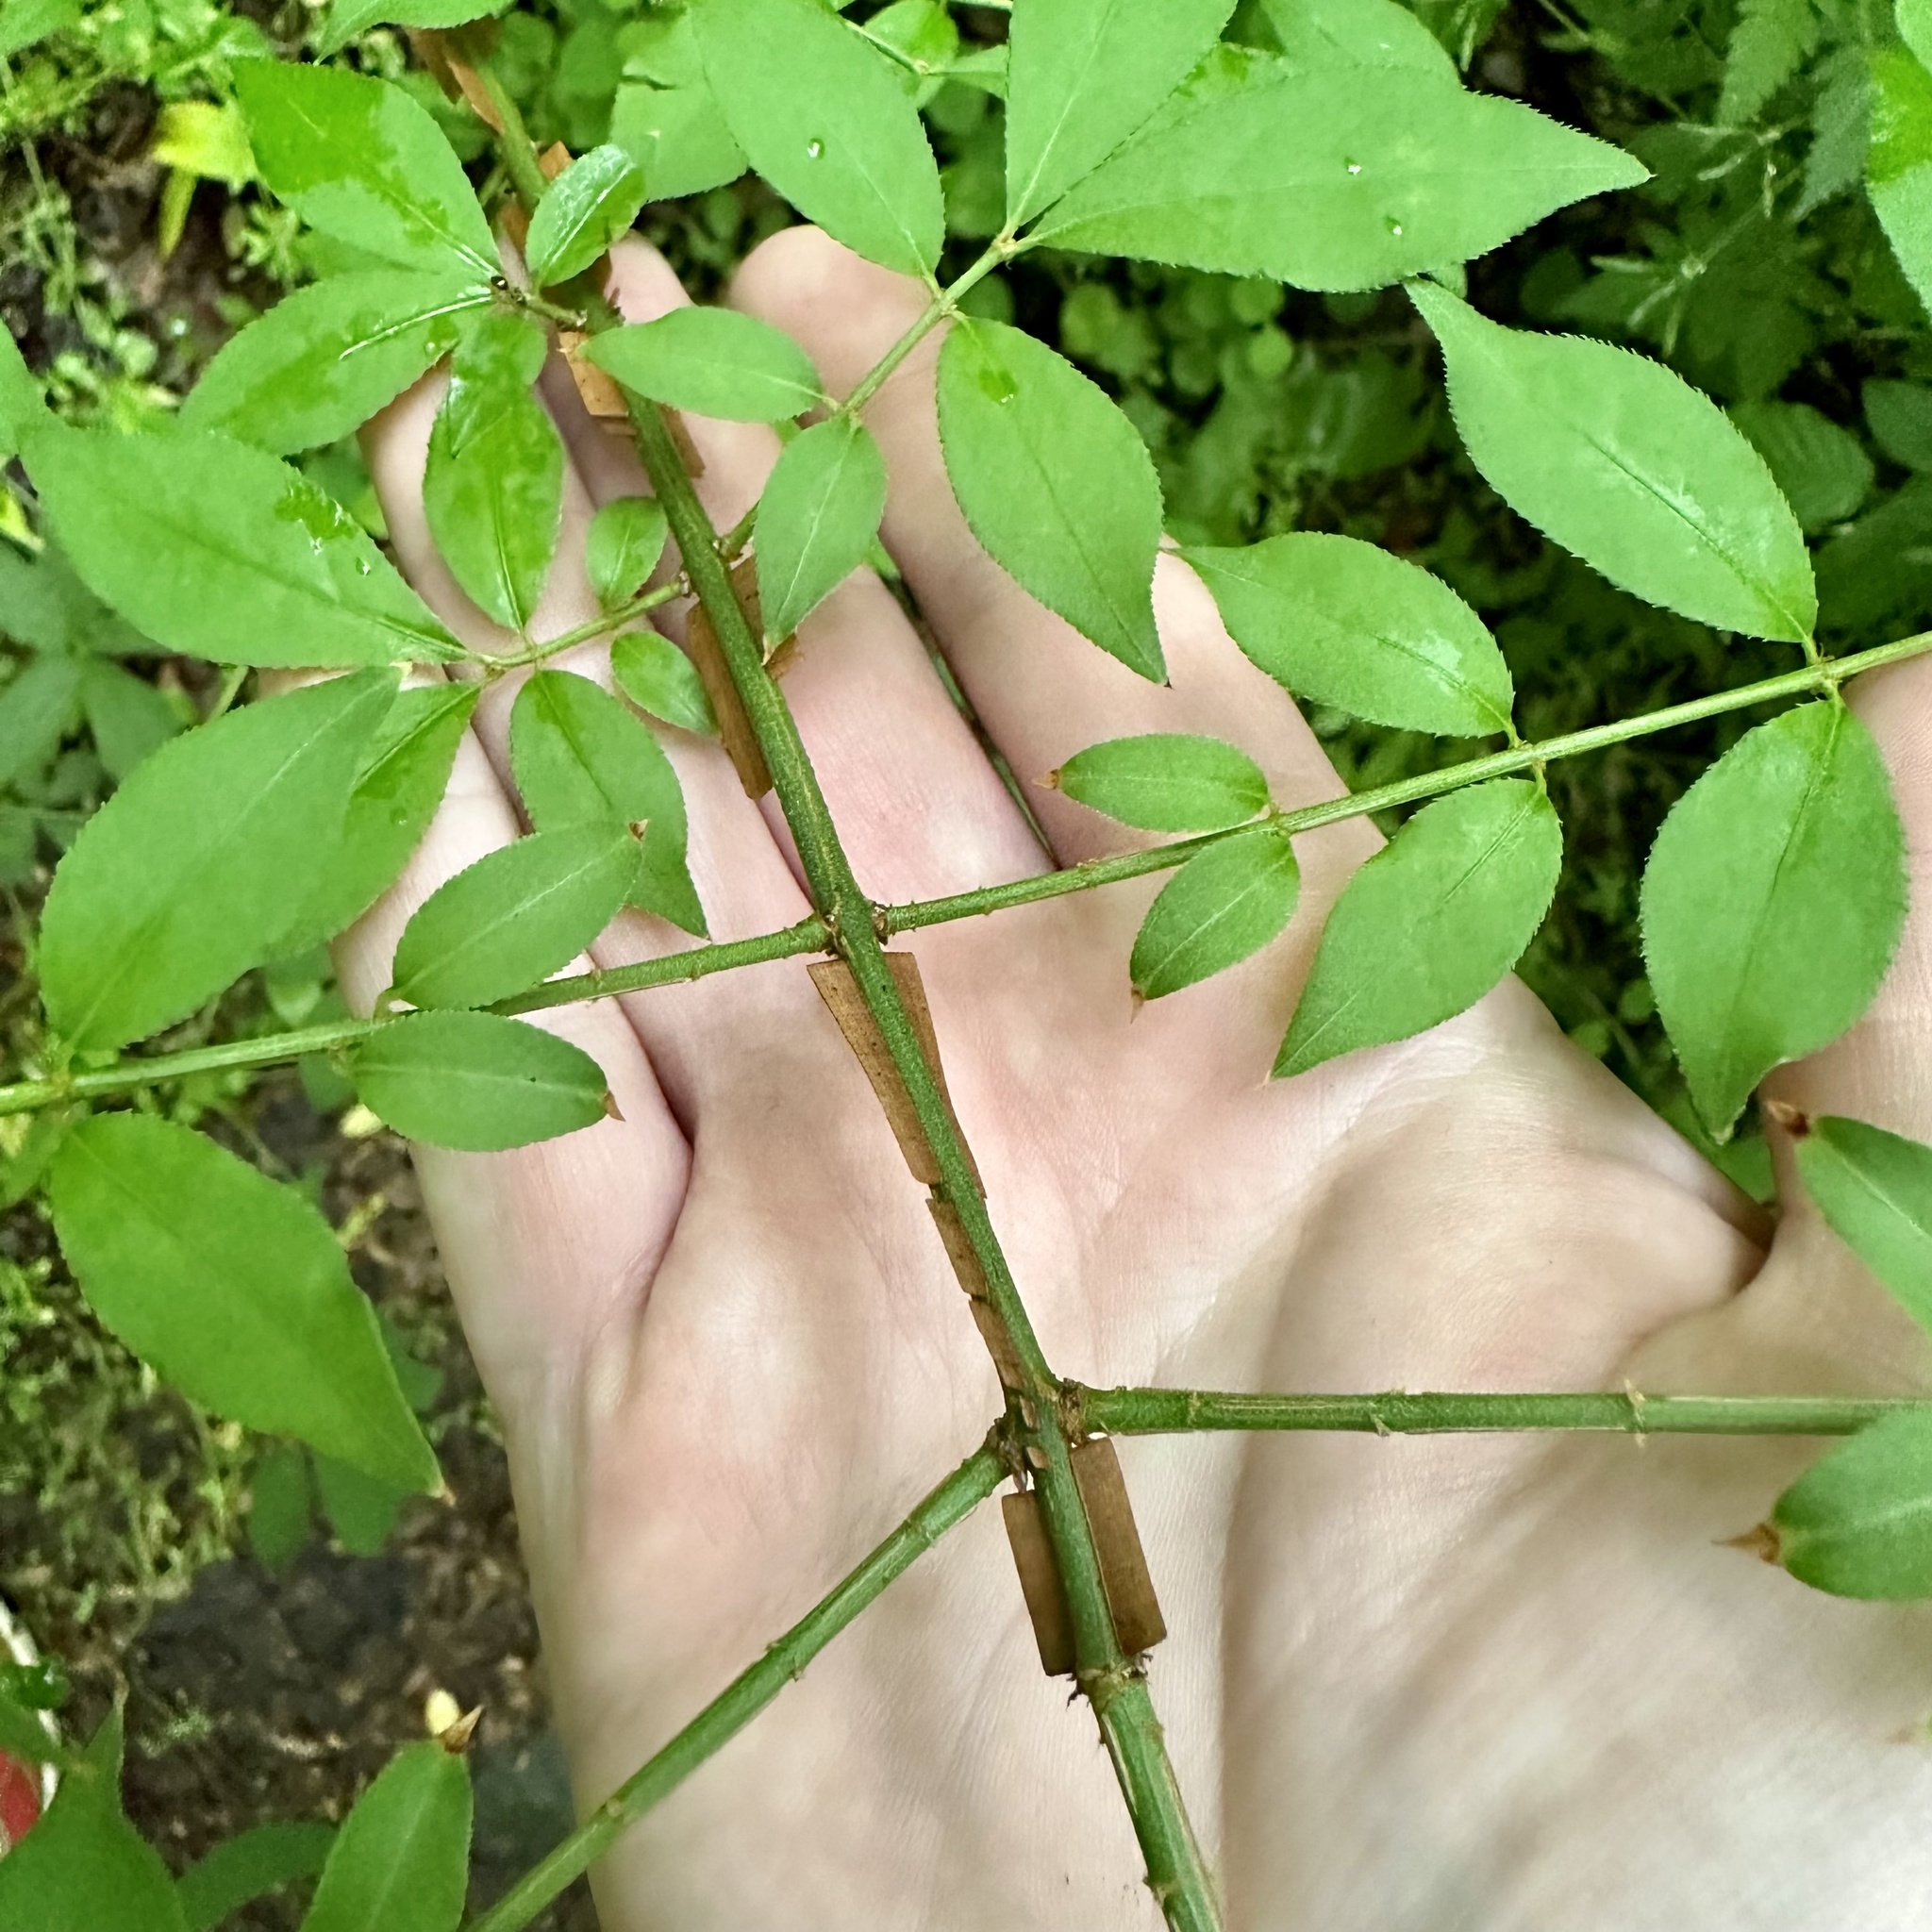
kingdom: Plantae
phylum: Tracheophyta
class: Magnoliopsida
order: Celastrales
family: Celastraceae
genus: Euonymus
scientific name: Euonymus alatus
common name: Winged euonymus
